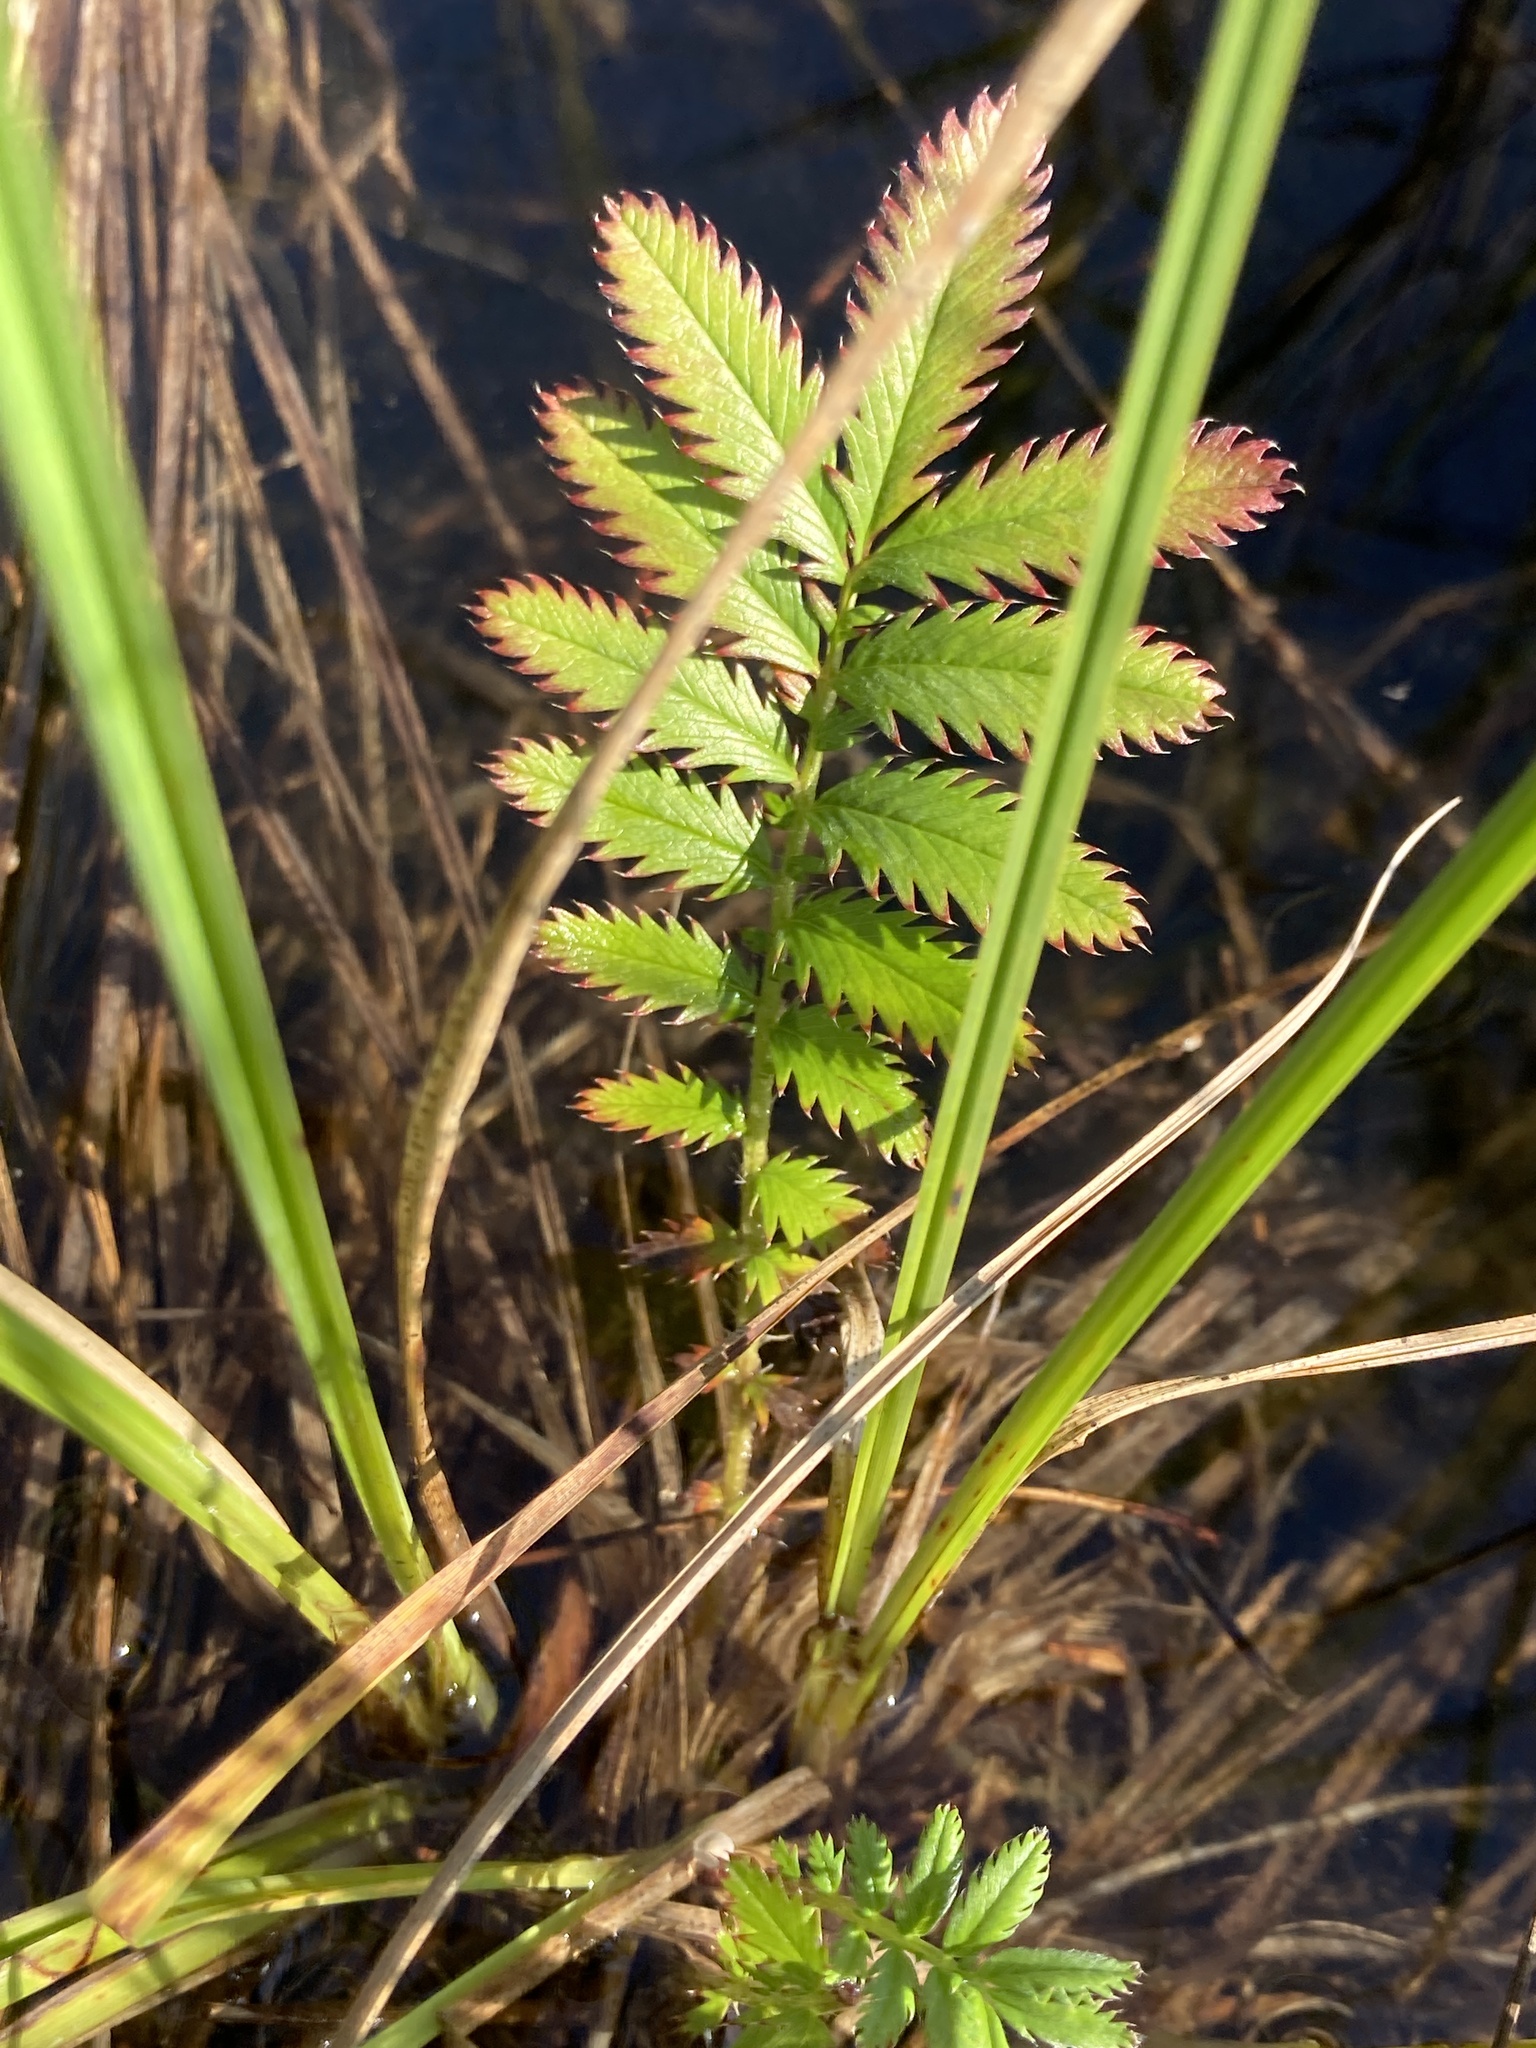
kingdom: Plantae
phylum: Tracheophyta
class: Magnoliopsida
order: Rosales
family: Rosaceae
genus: Argentina
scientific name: Argentina anserina
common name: Common silverweed
